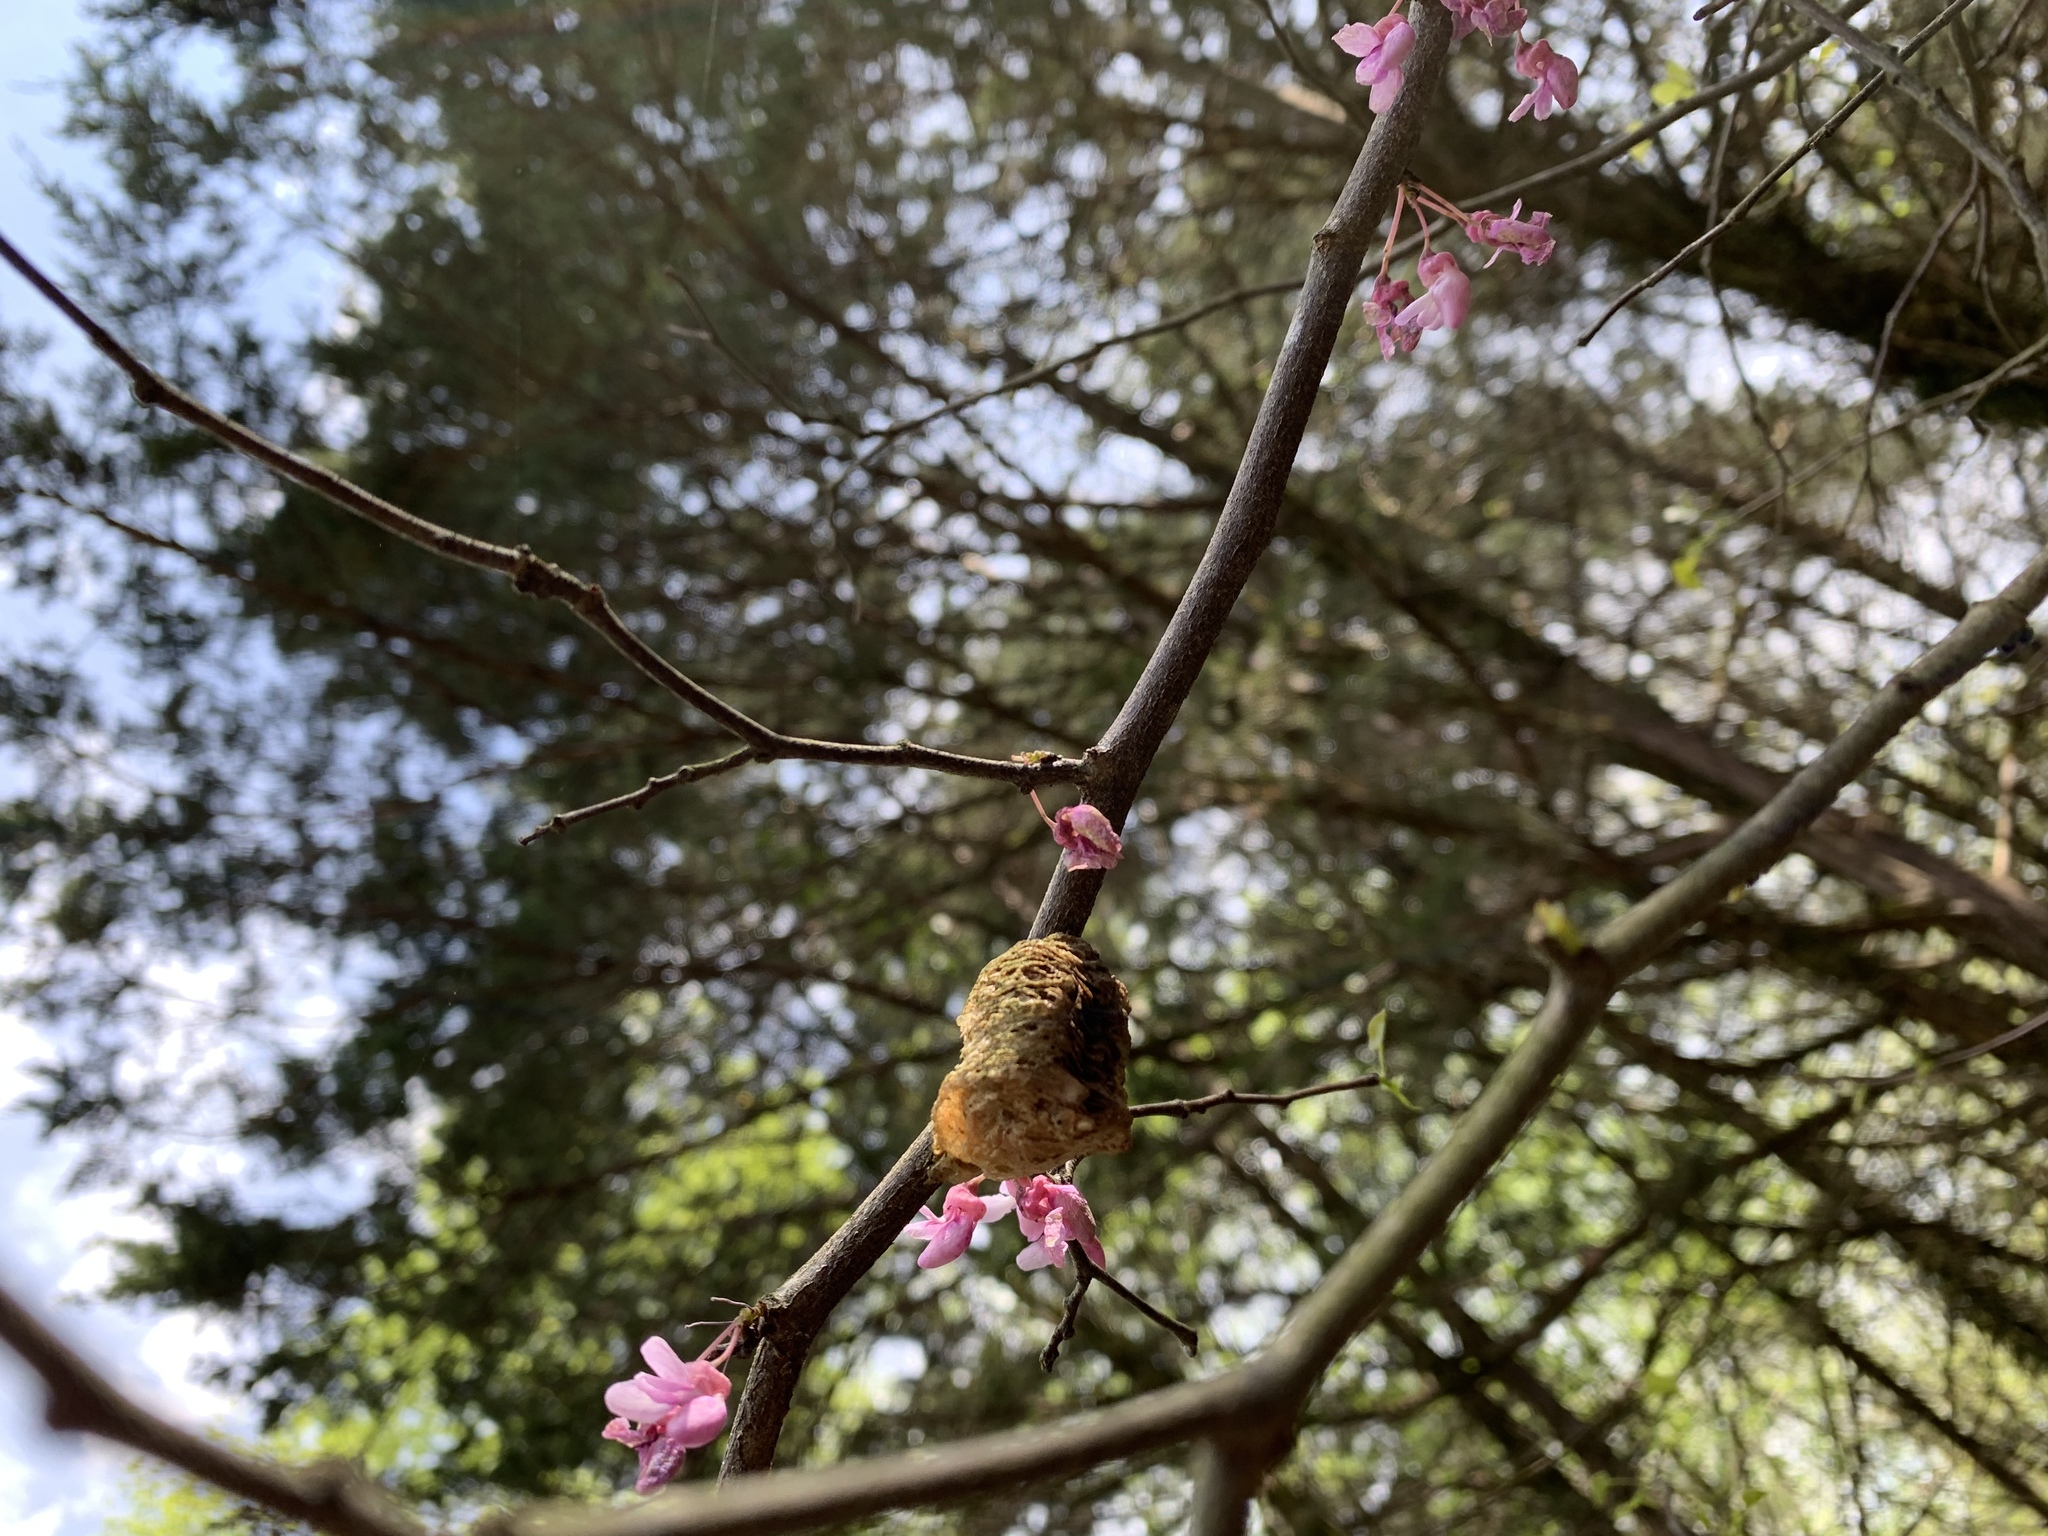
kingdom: Animalia
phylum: Arthropoda
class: Insecta
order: Mantodea
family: Mantidae
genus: Tenodera
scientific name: Tenodera sinensis
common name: Chinese mantis
